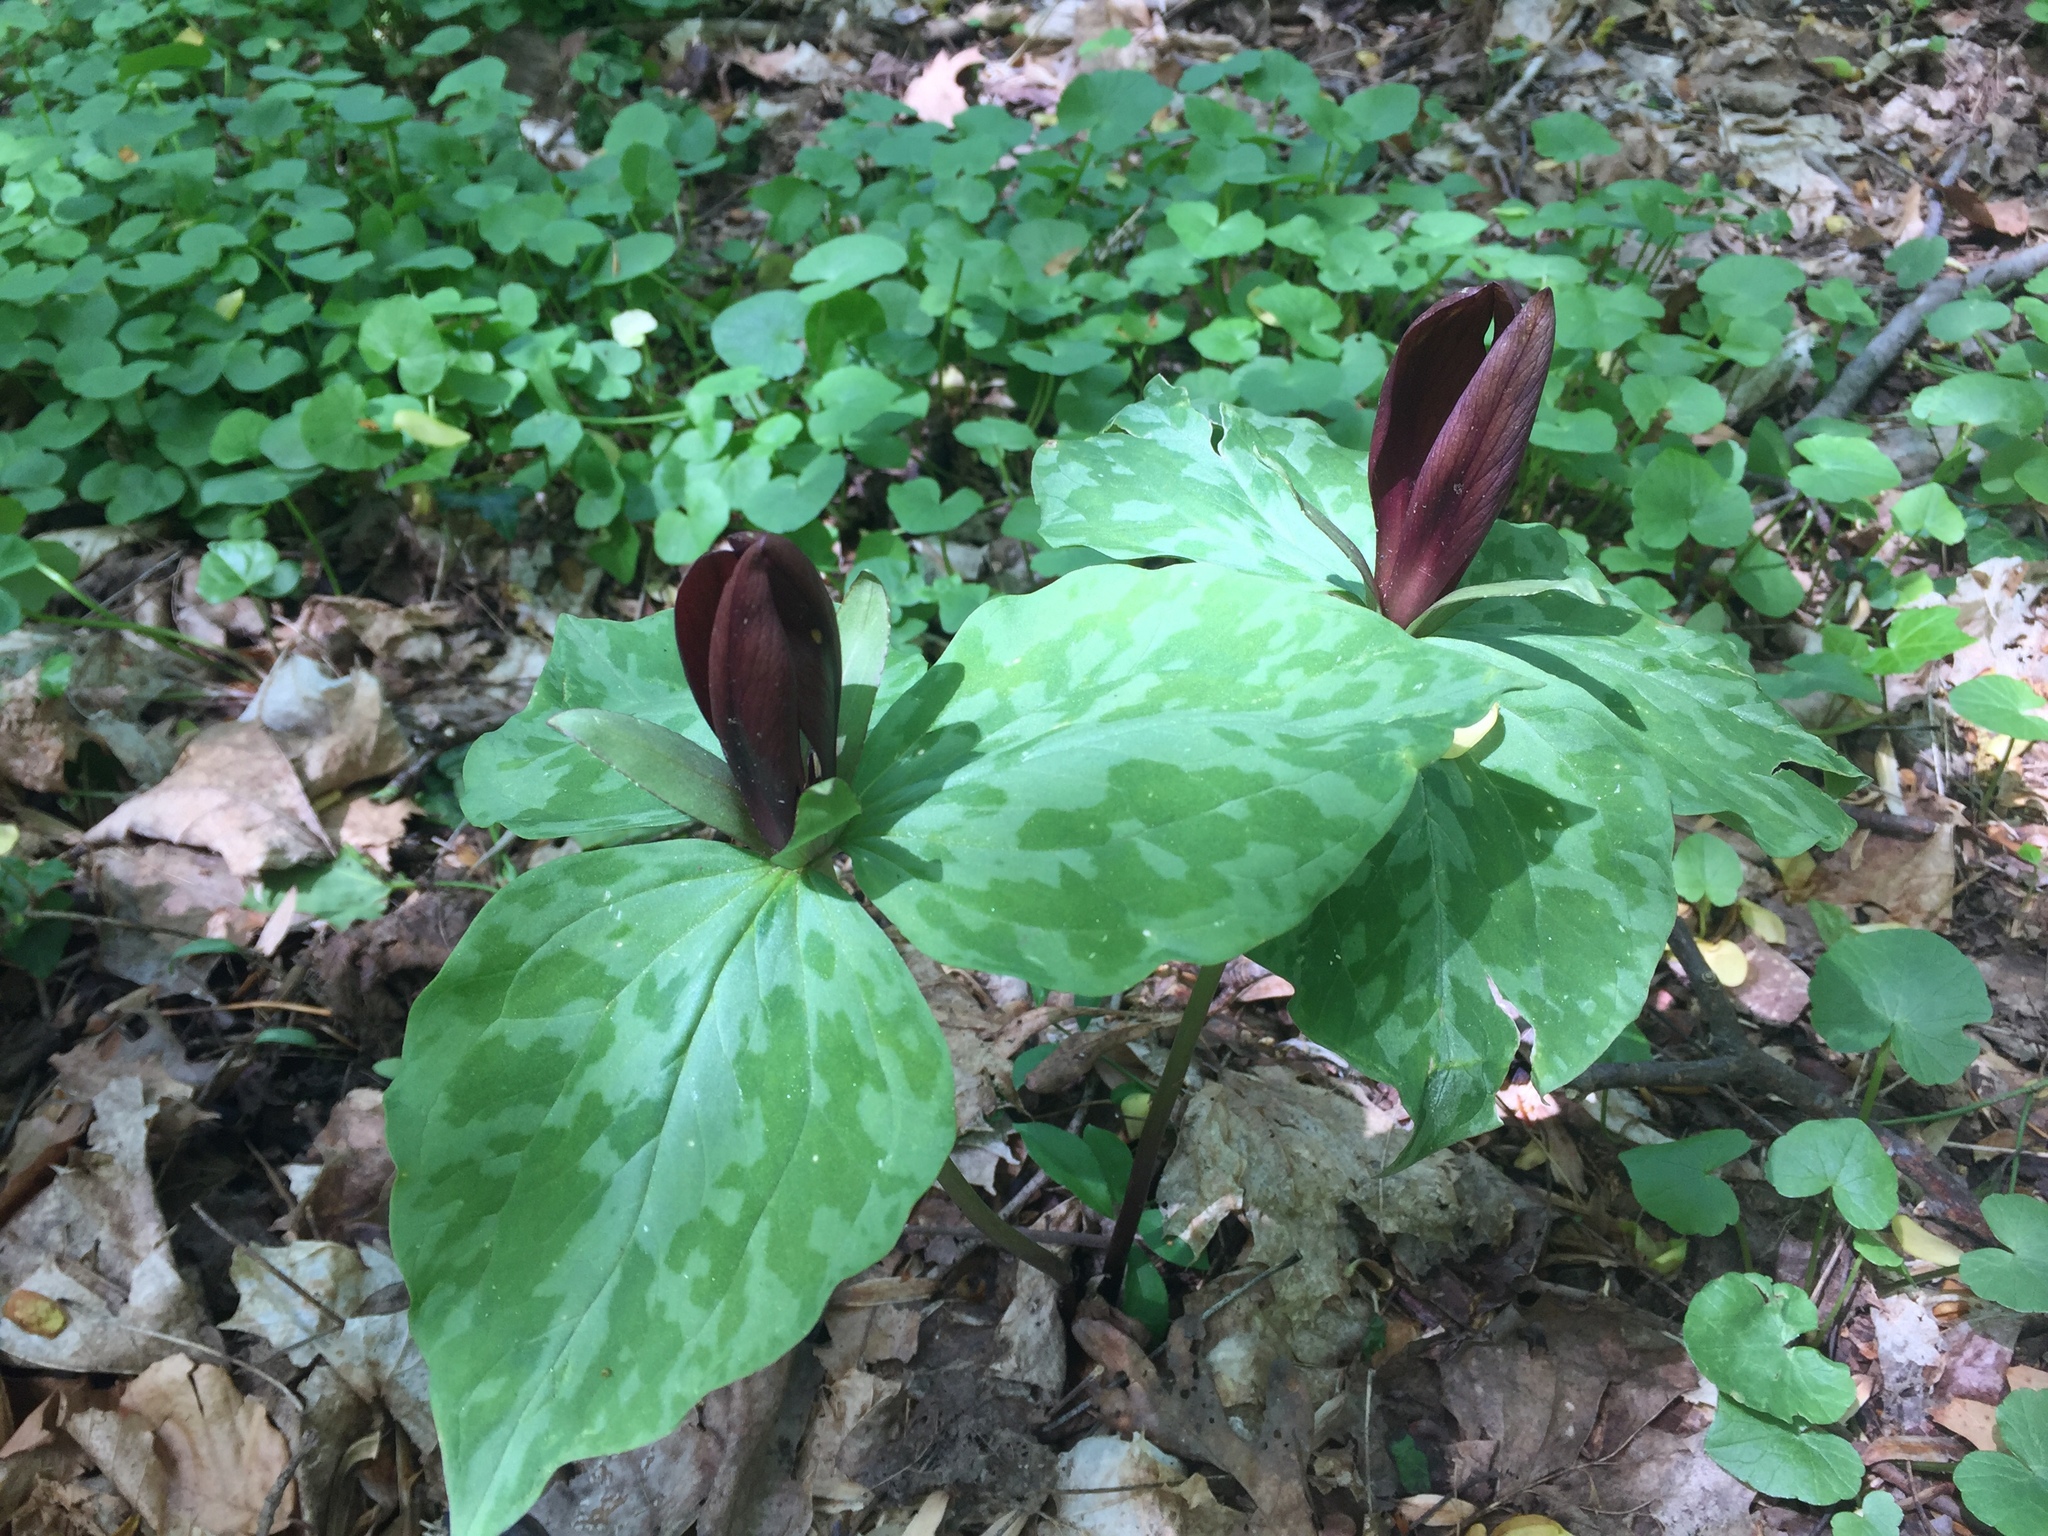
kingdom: Plantae
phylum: Tracheophyta
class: Liliopsida
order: Liliales
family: Melanthiaceae
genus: Trillium
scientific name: Trillium cuneatum
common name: Cuneate trillium
